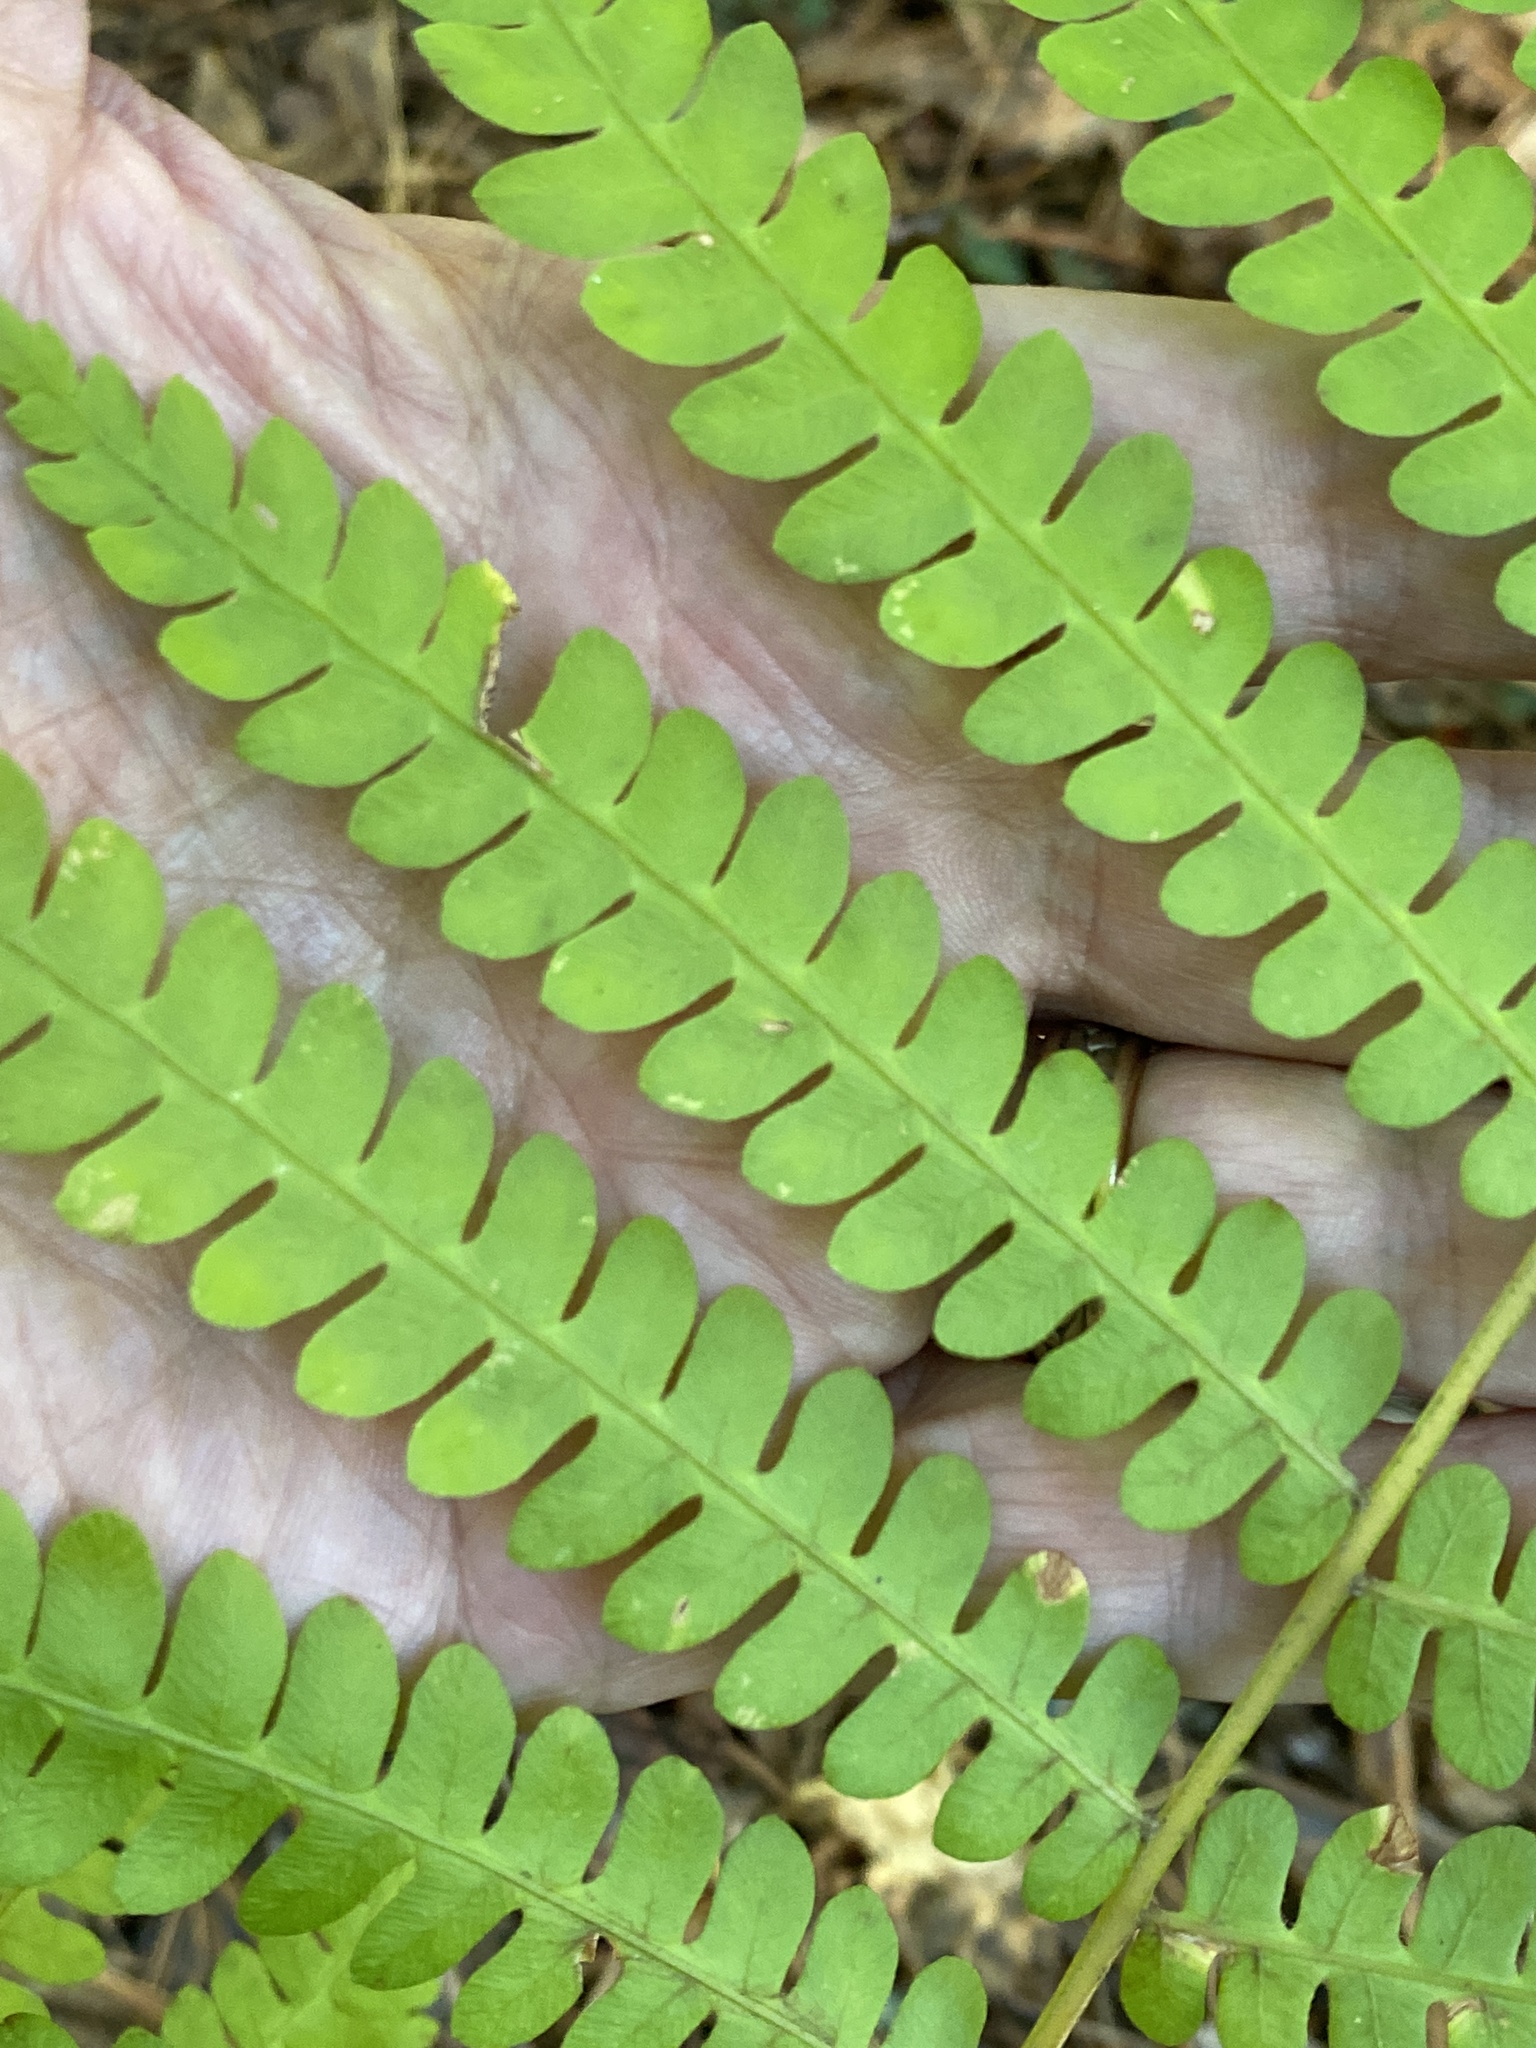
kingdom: Plantae
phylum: Tracheophyta
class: Polypodiopsida
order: Osmundales
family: Osmundaceae
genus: Osmundastrum
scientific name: Osmundastrum cinnamomeum
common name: Cinnamon fern
